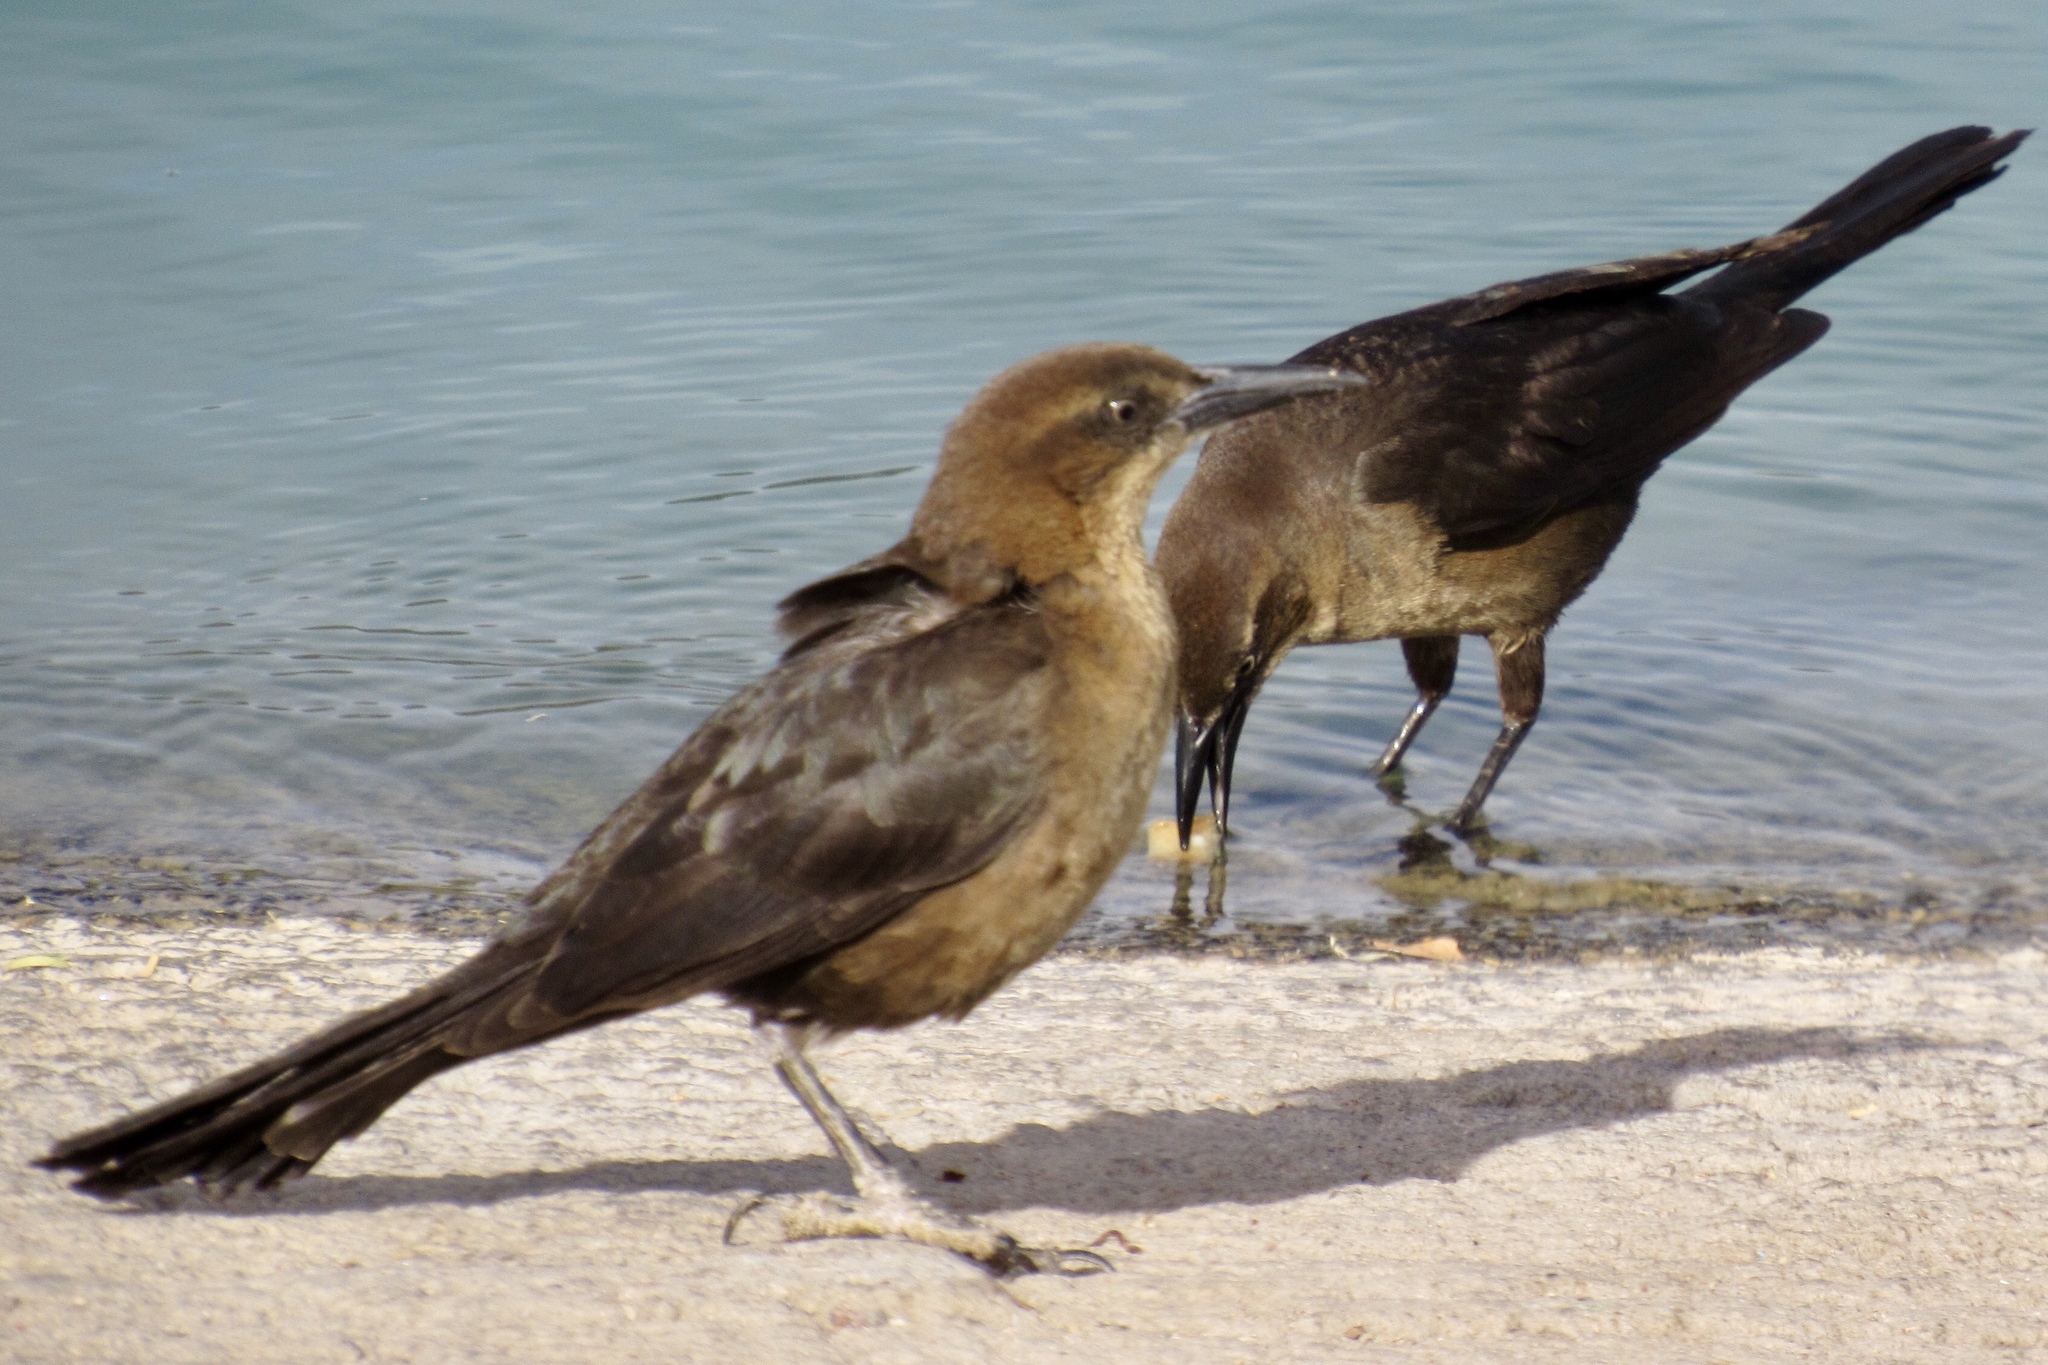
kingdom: Animalia
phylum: Chordata
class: Aves
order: Passeriformes
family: Icteridae
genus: Quiscalus
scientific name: Quiscalus mexicanus
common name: Great-tailed grackle
